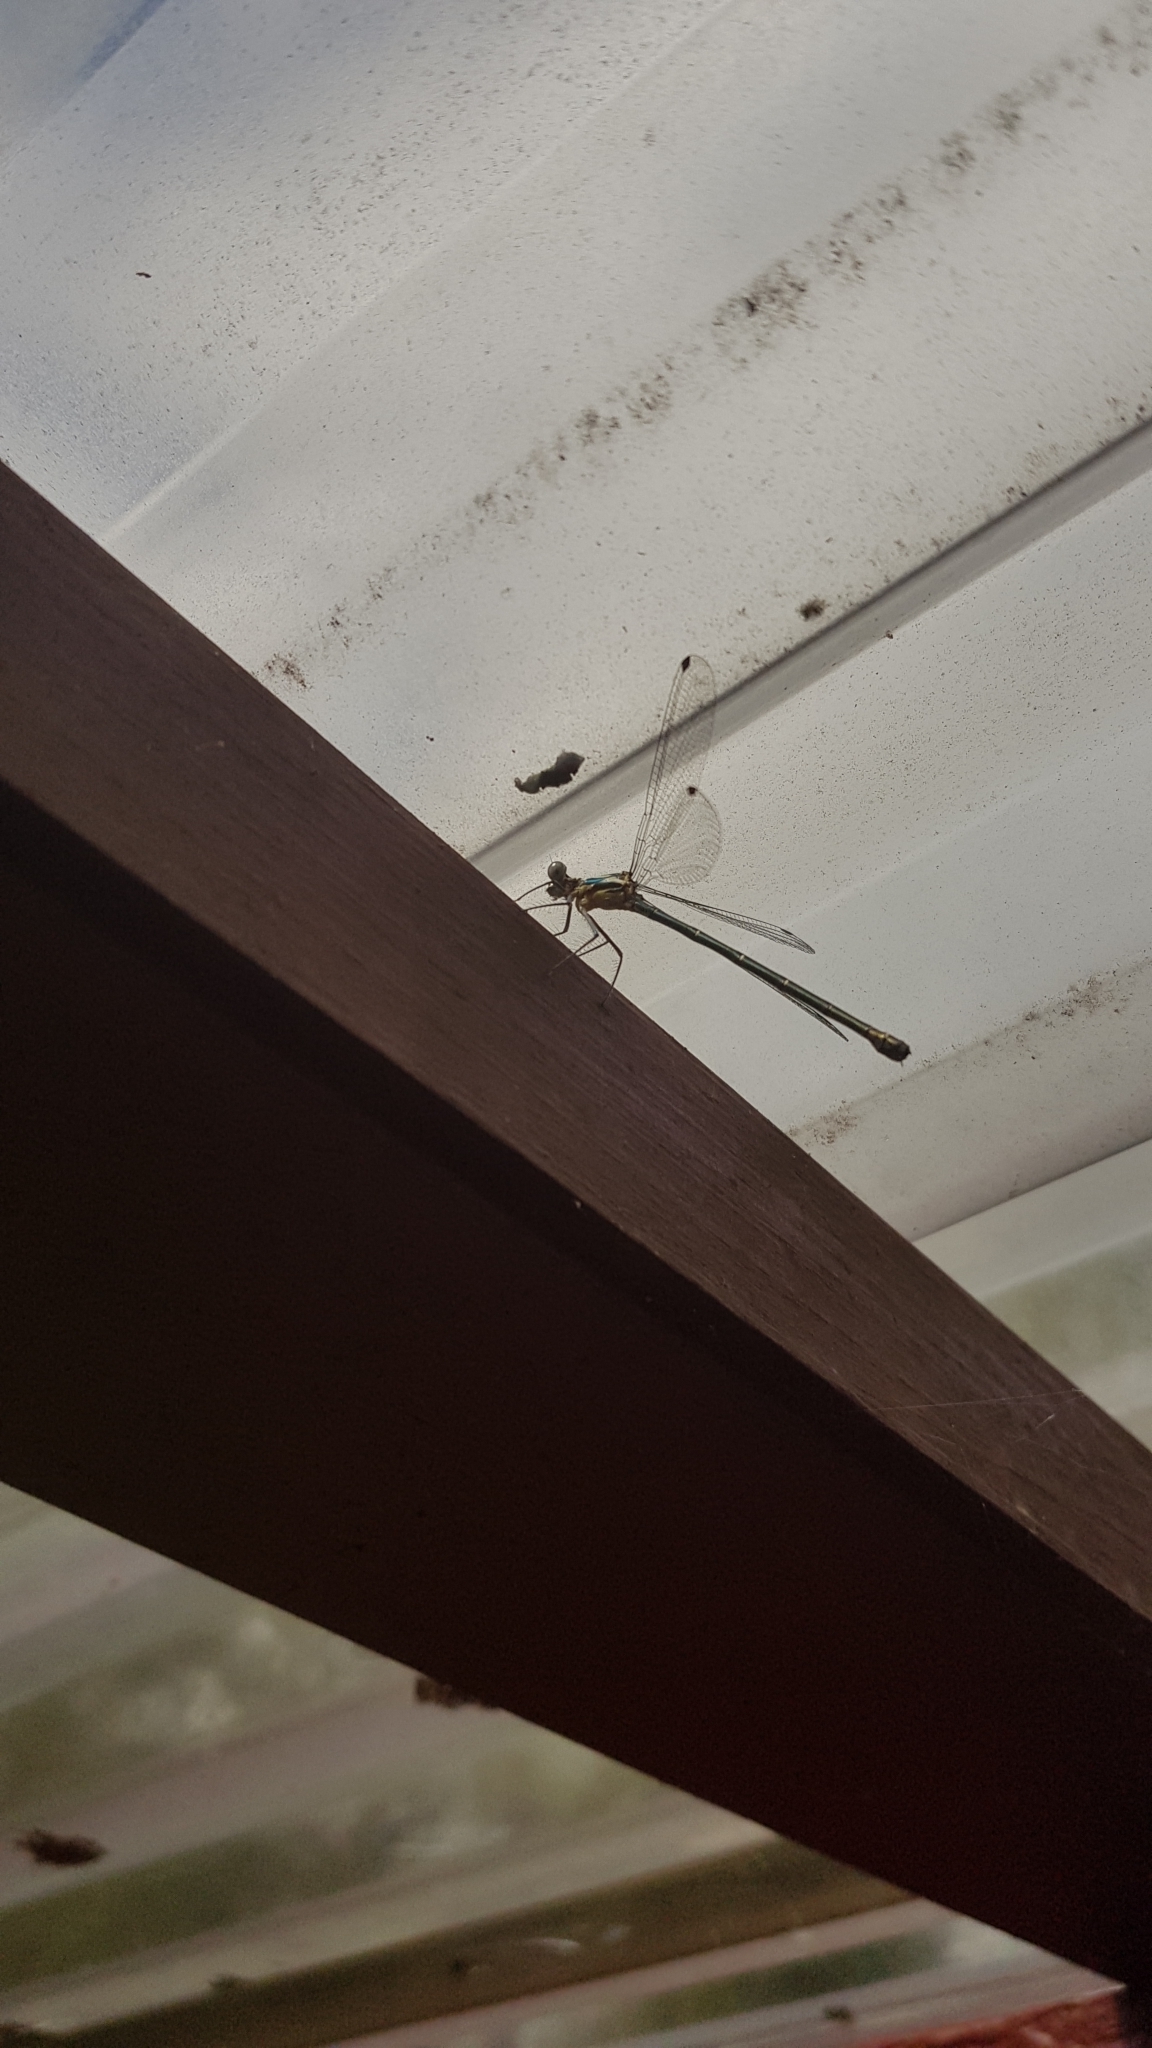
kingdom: Animalia
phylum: Arthropoda
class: Insecta
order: Odonata
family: Argiolestidae
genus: Austroargiolestes
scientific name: Austroargiolestes icteromelas
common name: Common flatwing
